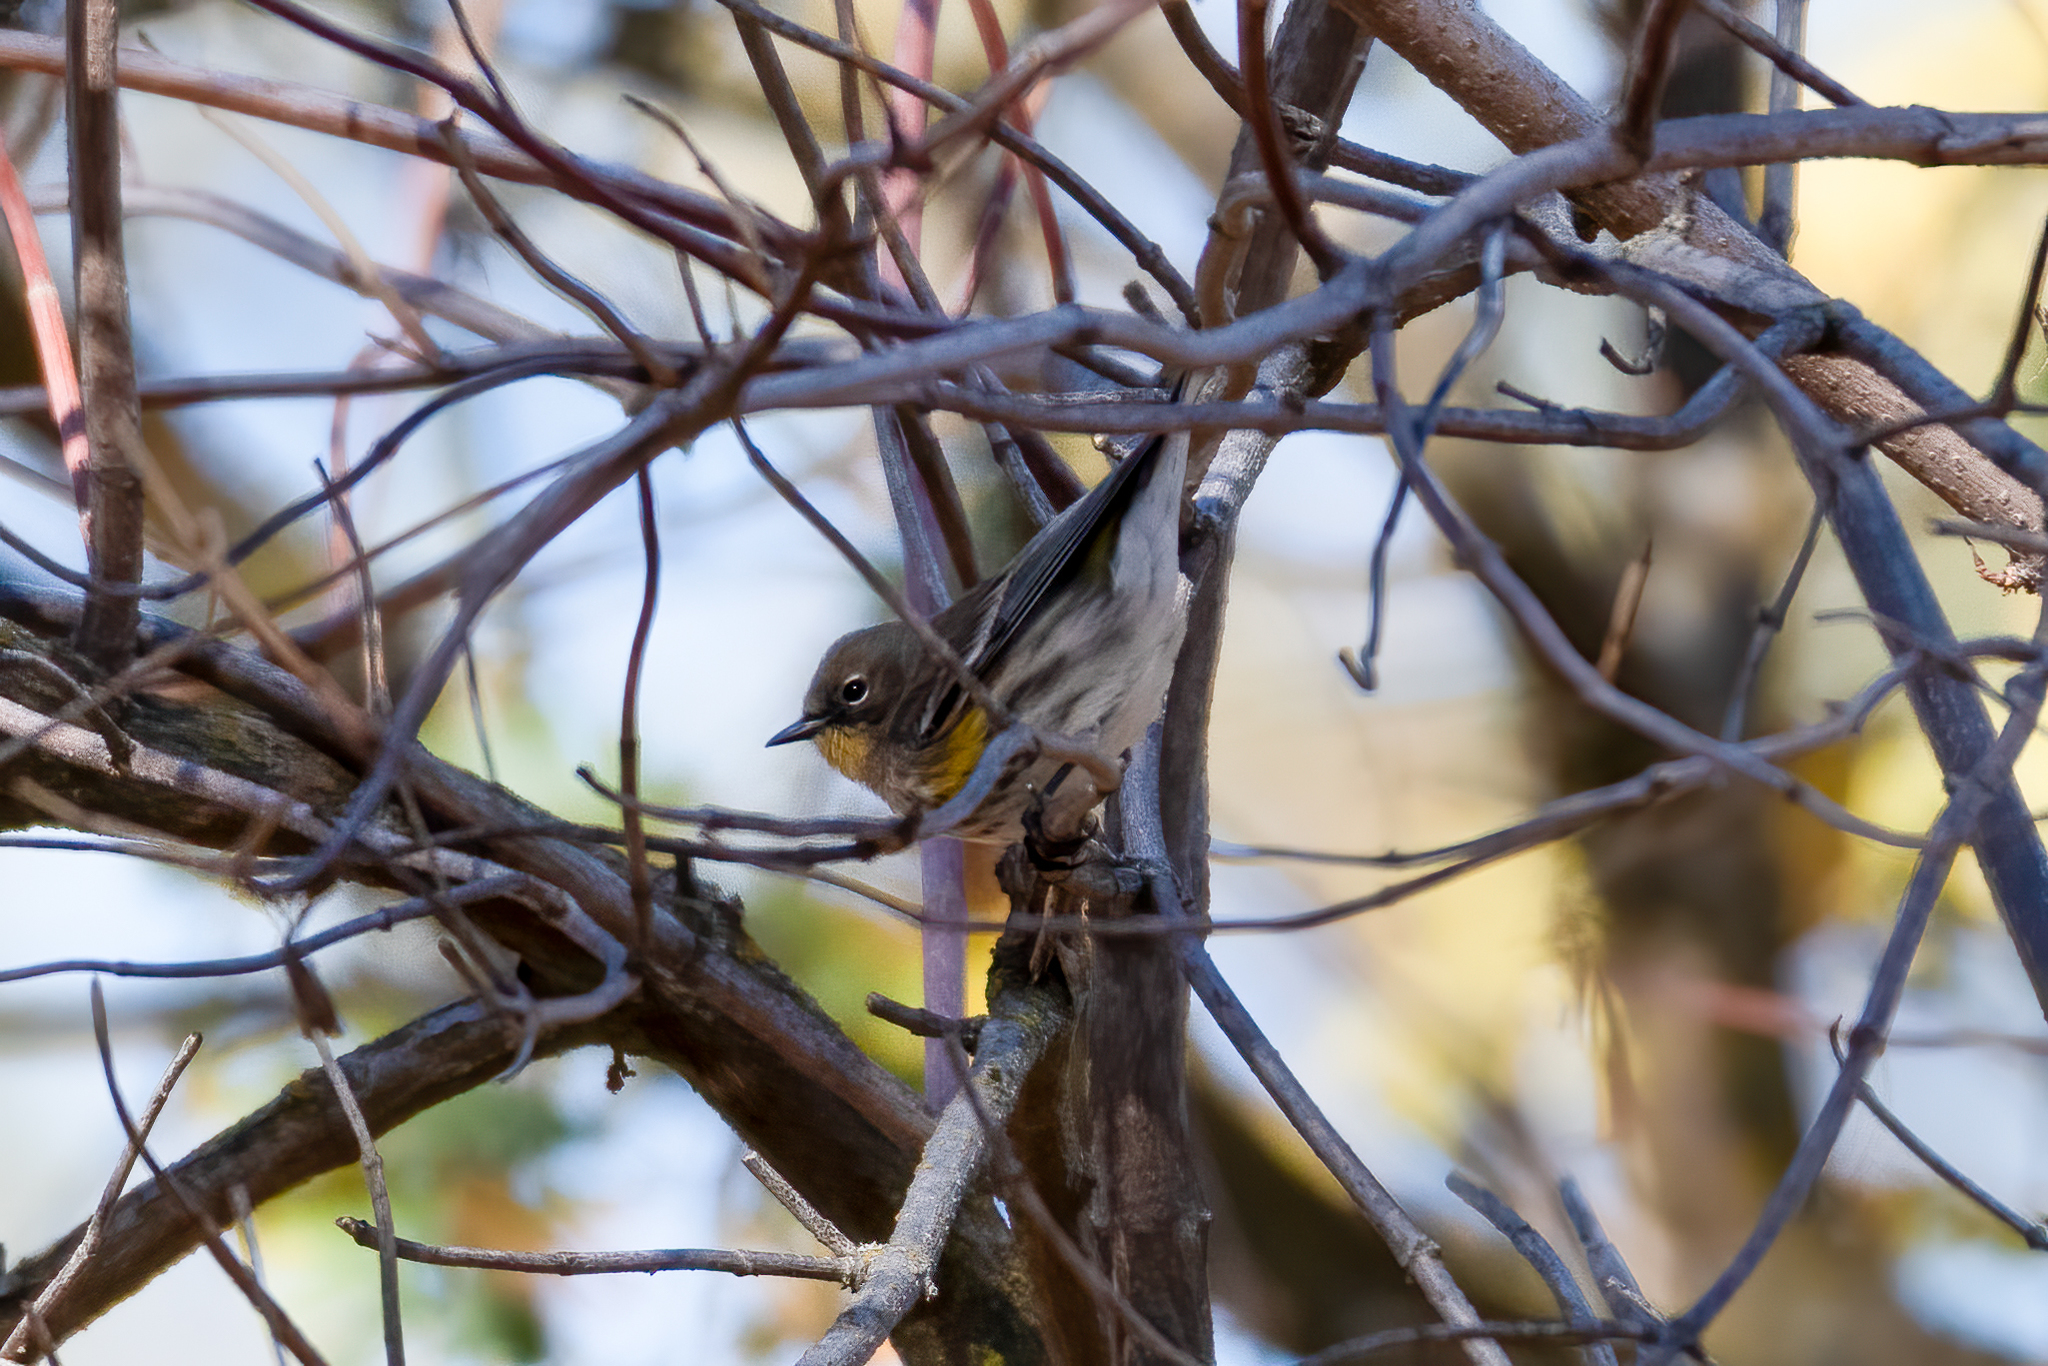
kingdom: Animalia
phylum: Chordata
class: Aves
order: Passeriformes
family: Parulidae
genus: Setophaga
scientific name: Setophaga coronata
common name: Myrtle warbler
